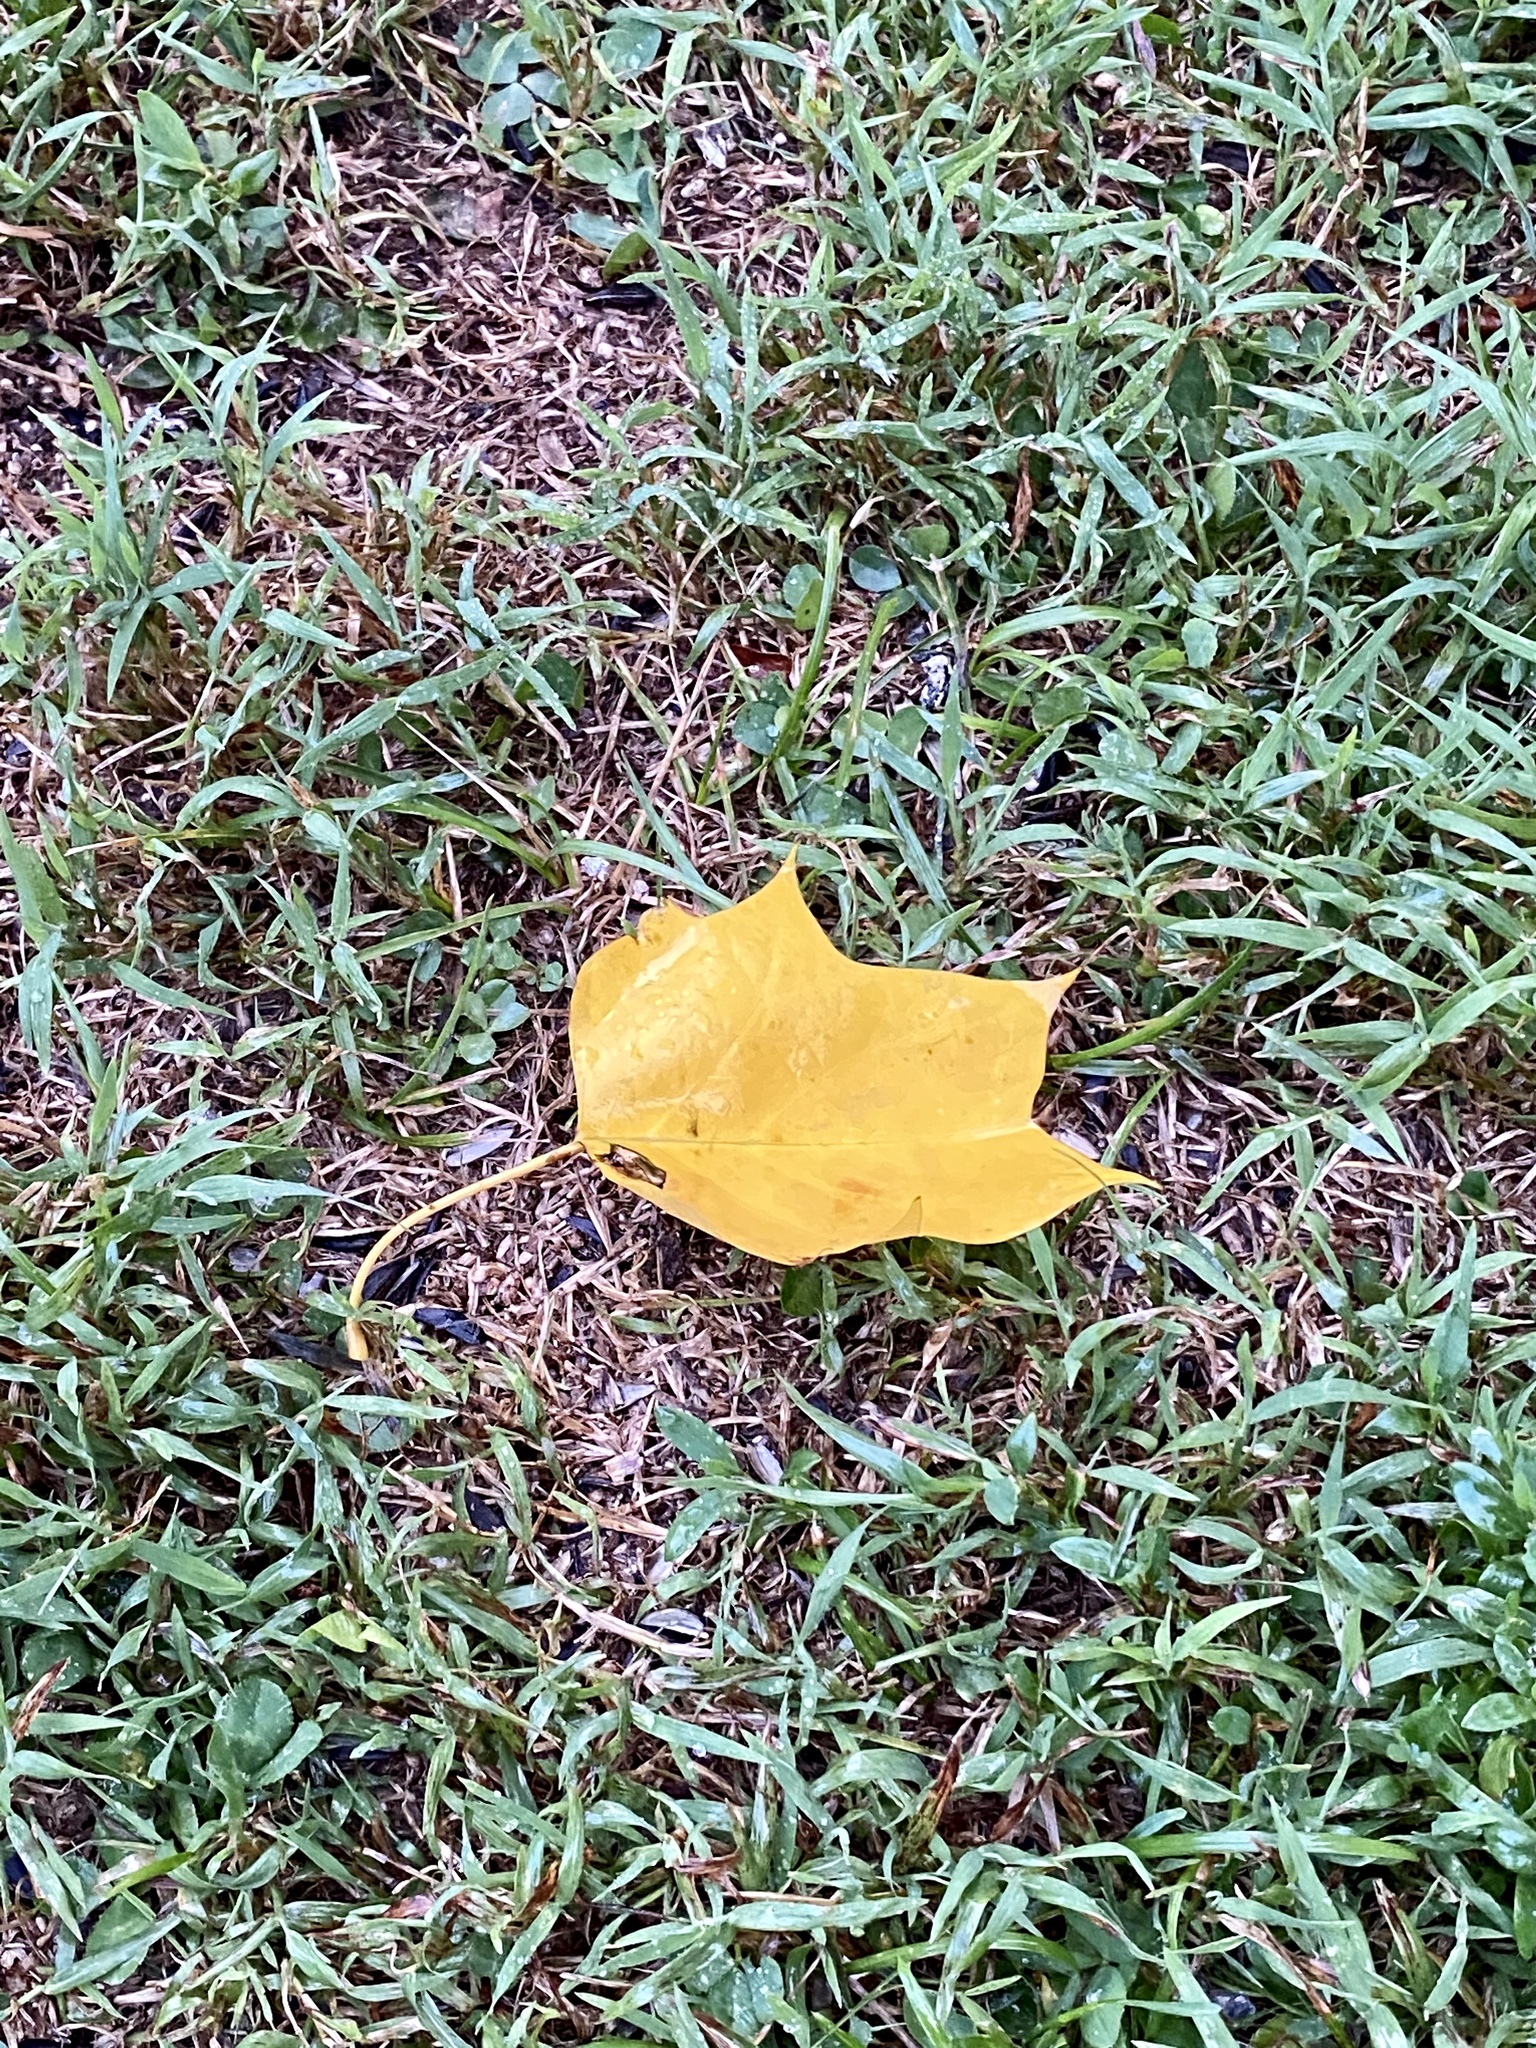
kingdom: Plantae
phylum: Tracheophyta
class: Magnoliopsida
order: Magnoliales
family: Magnoliaceae
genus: Liriodendron
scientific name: Liriodendron tulipifera
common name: Tulip tree
